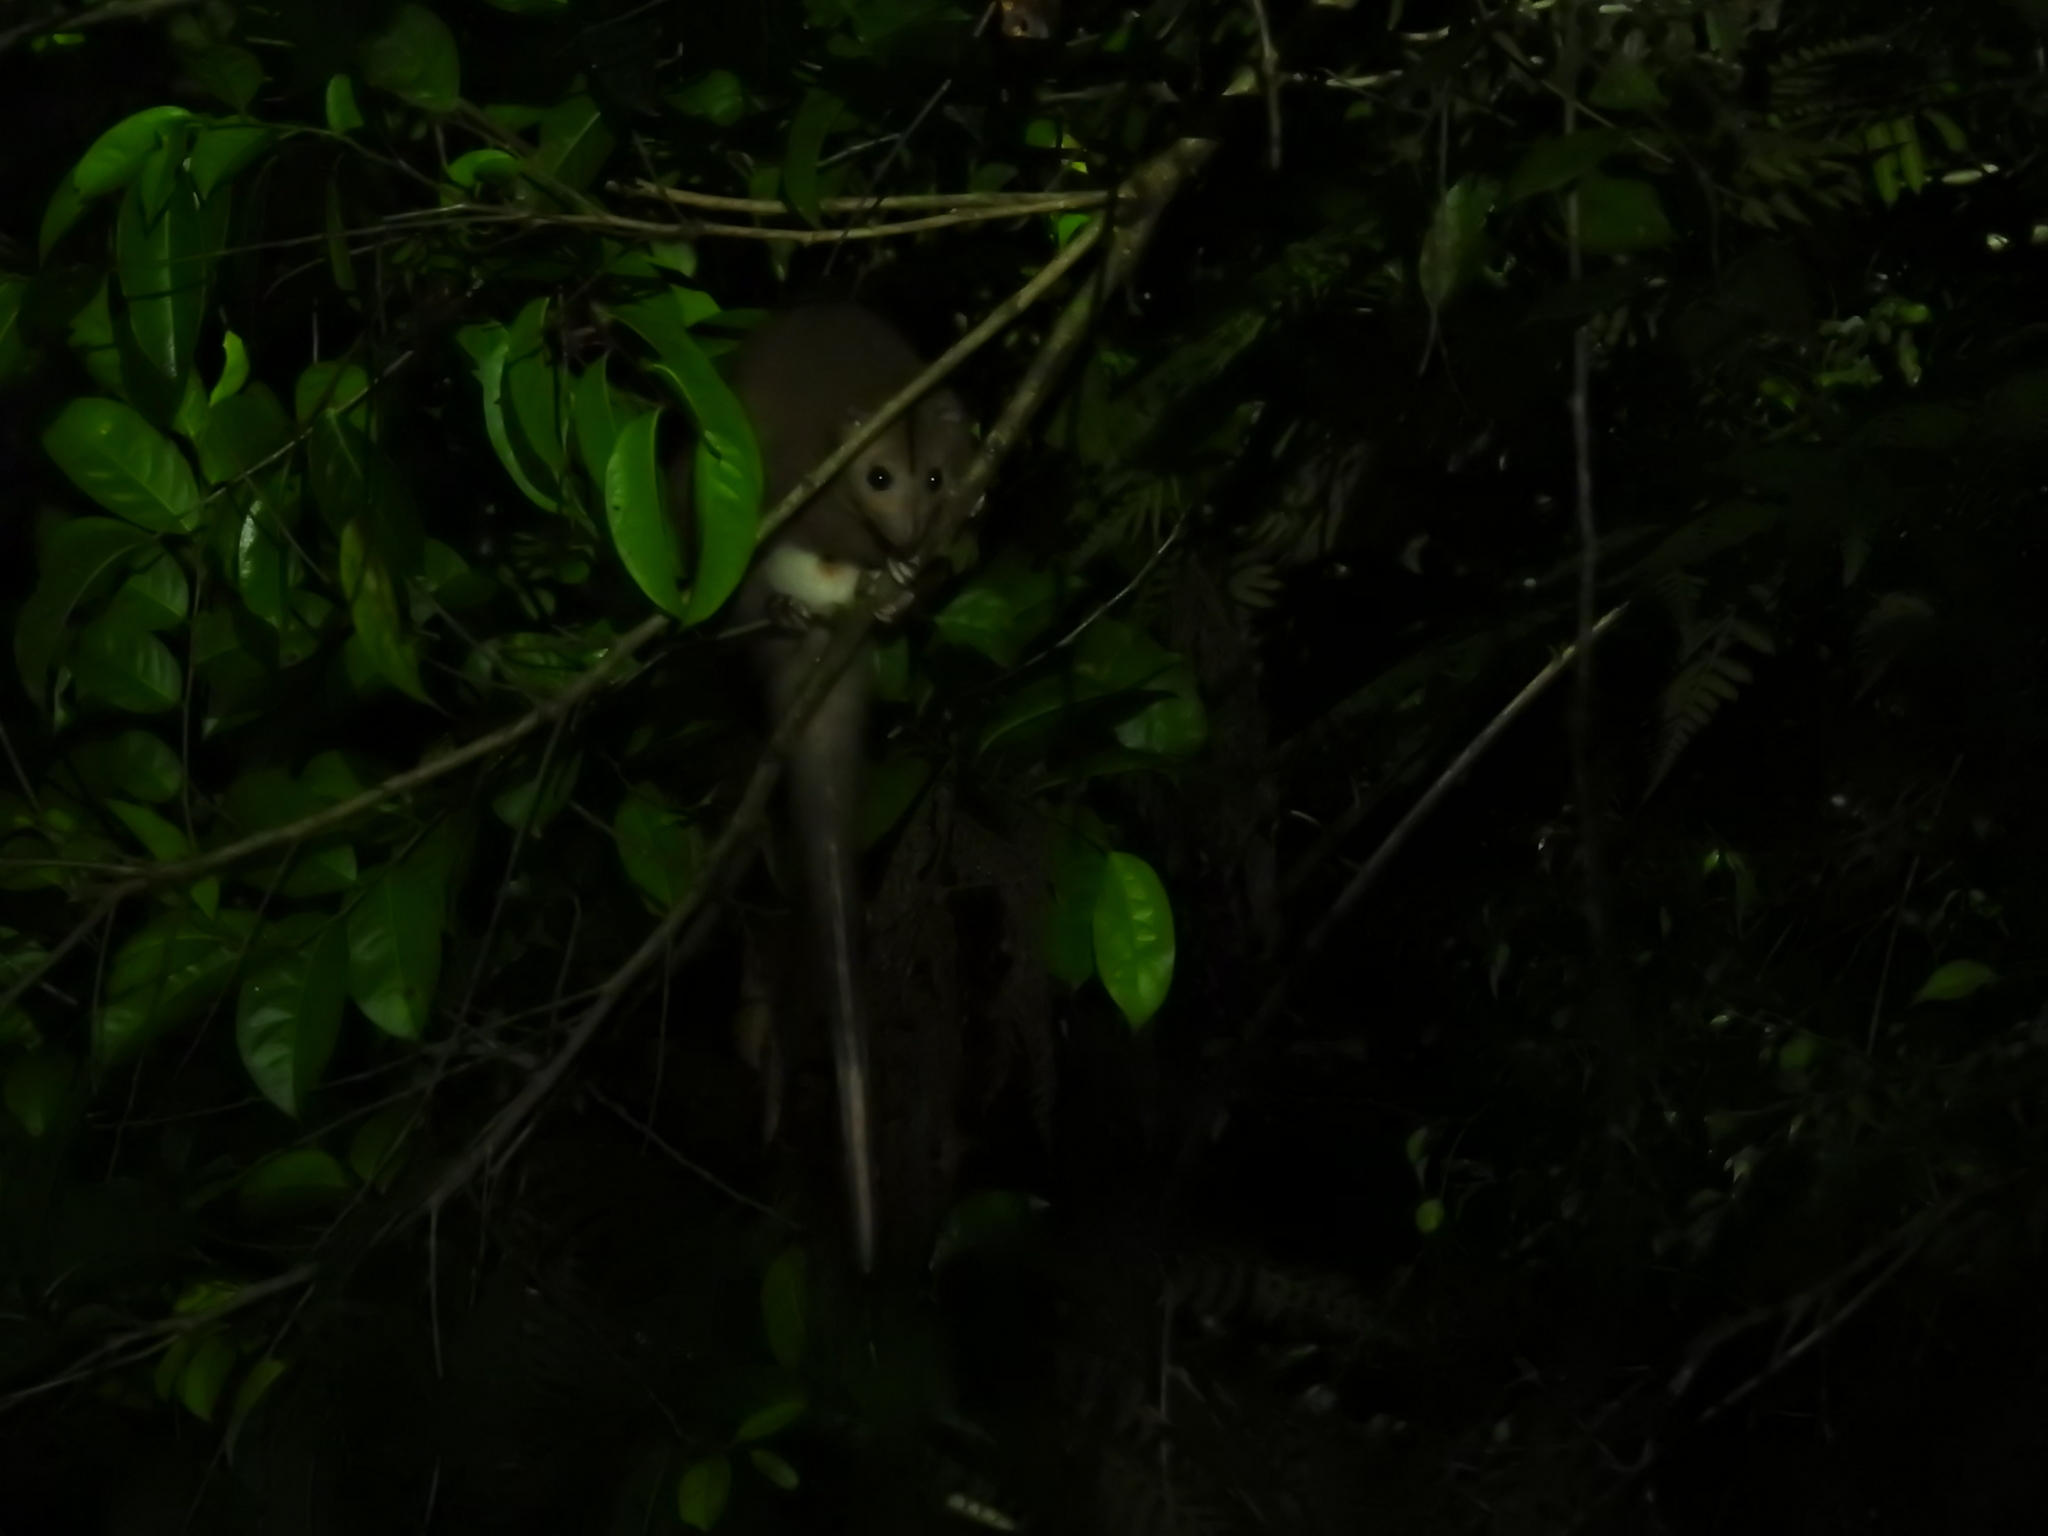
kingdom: Animalia
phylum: Chordata
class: Mammalia
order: Diprotodontia
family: Pseudocheiridae
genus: Pseudochirulus
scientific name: Pseudochirulus cinereus
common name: Cinereous ringtail
